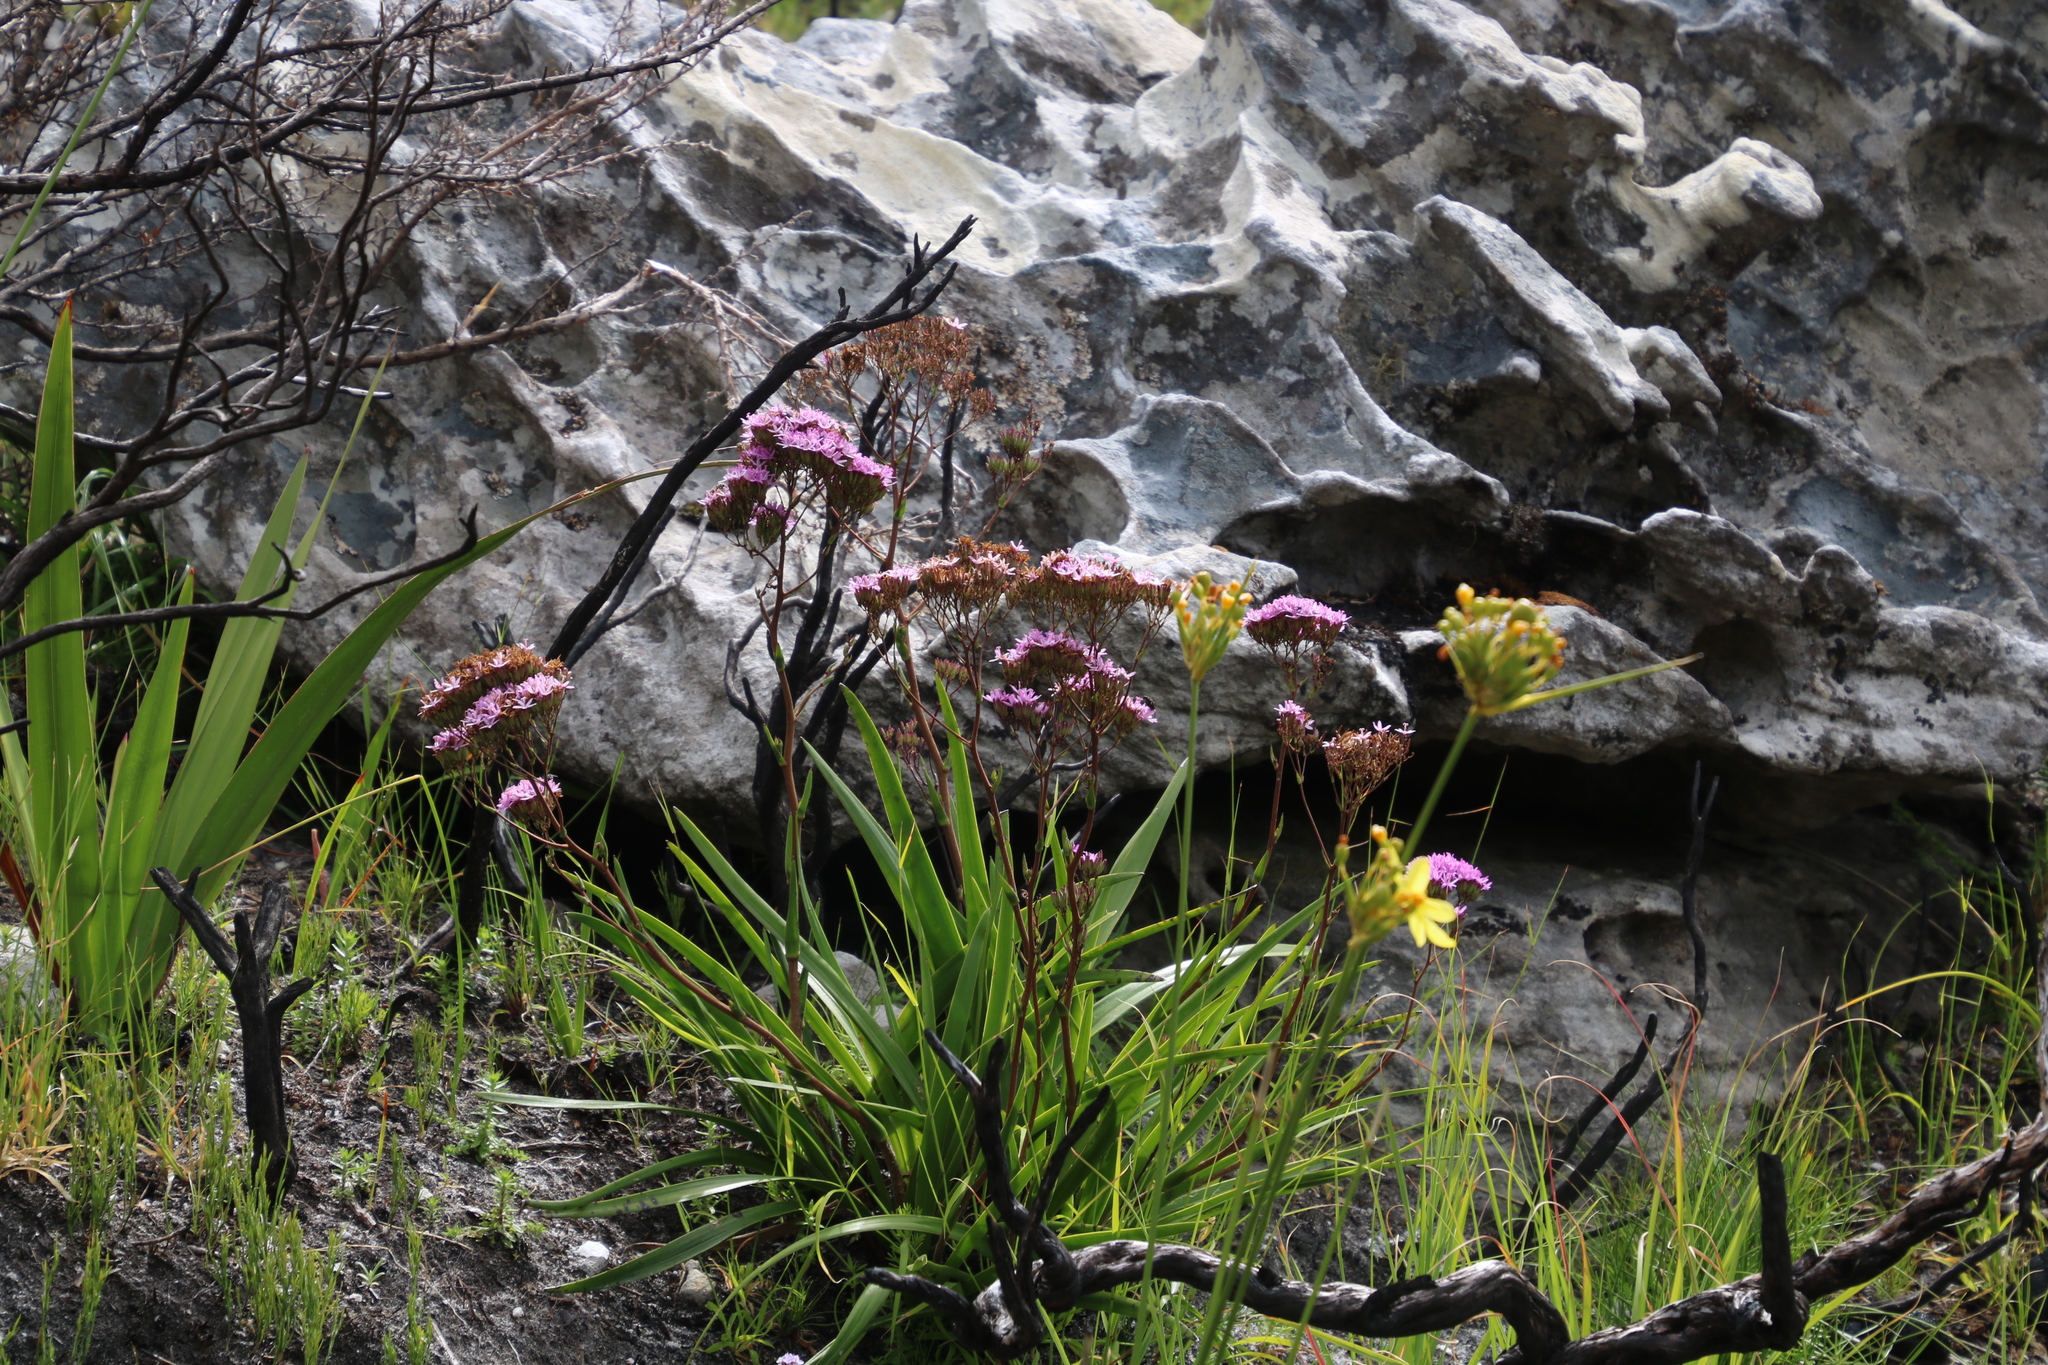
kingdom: Plantae
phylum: Tracheophyta
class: Magnoliopsida
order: Asterales
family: Asteraceae
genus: Corymbium
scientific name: Corymbium glabrum
